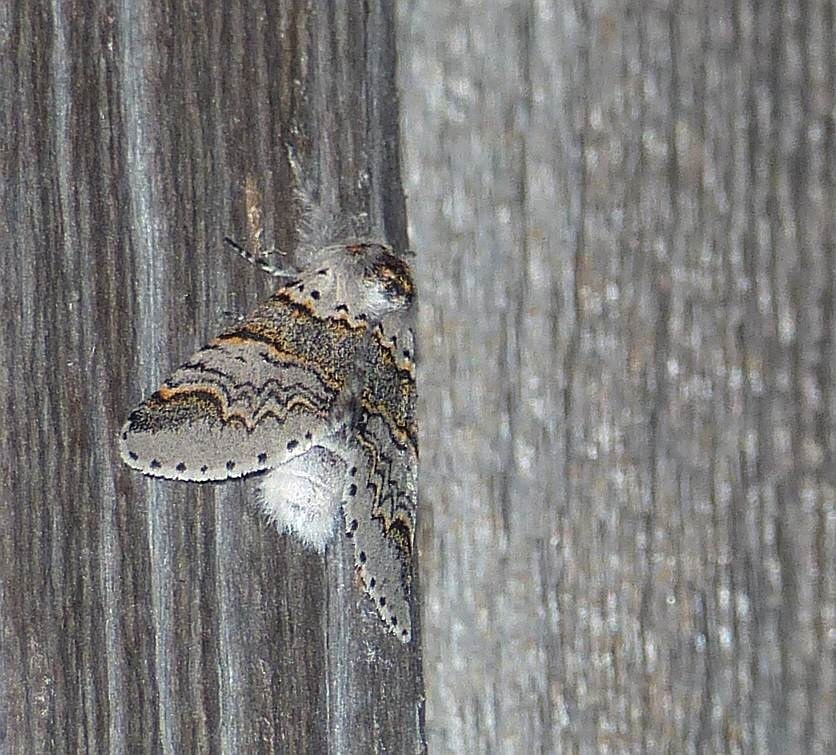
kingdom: Animalia
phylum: Arthropoda
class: Insecta
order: Lepidoptera
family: Notodontidae
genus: Furcula
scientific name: Furcula occidentalis
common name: Western furcula moth
